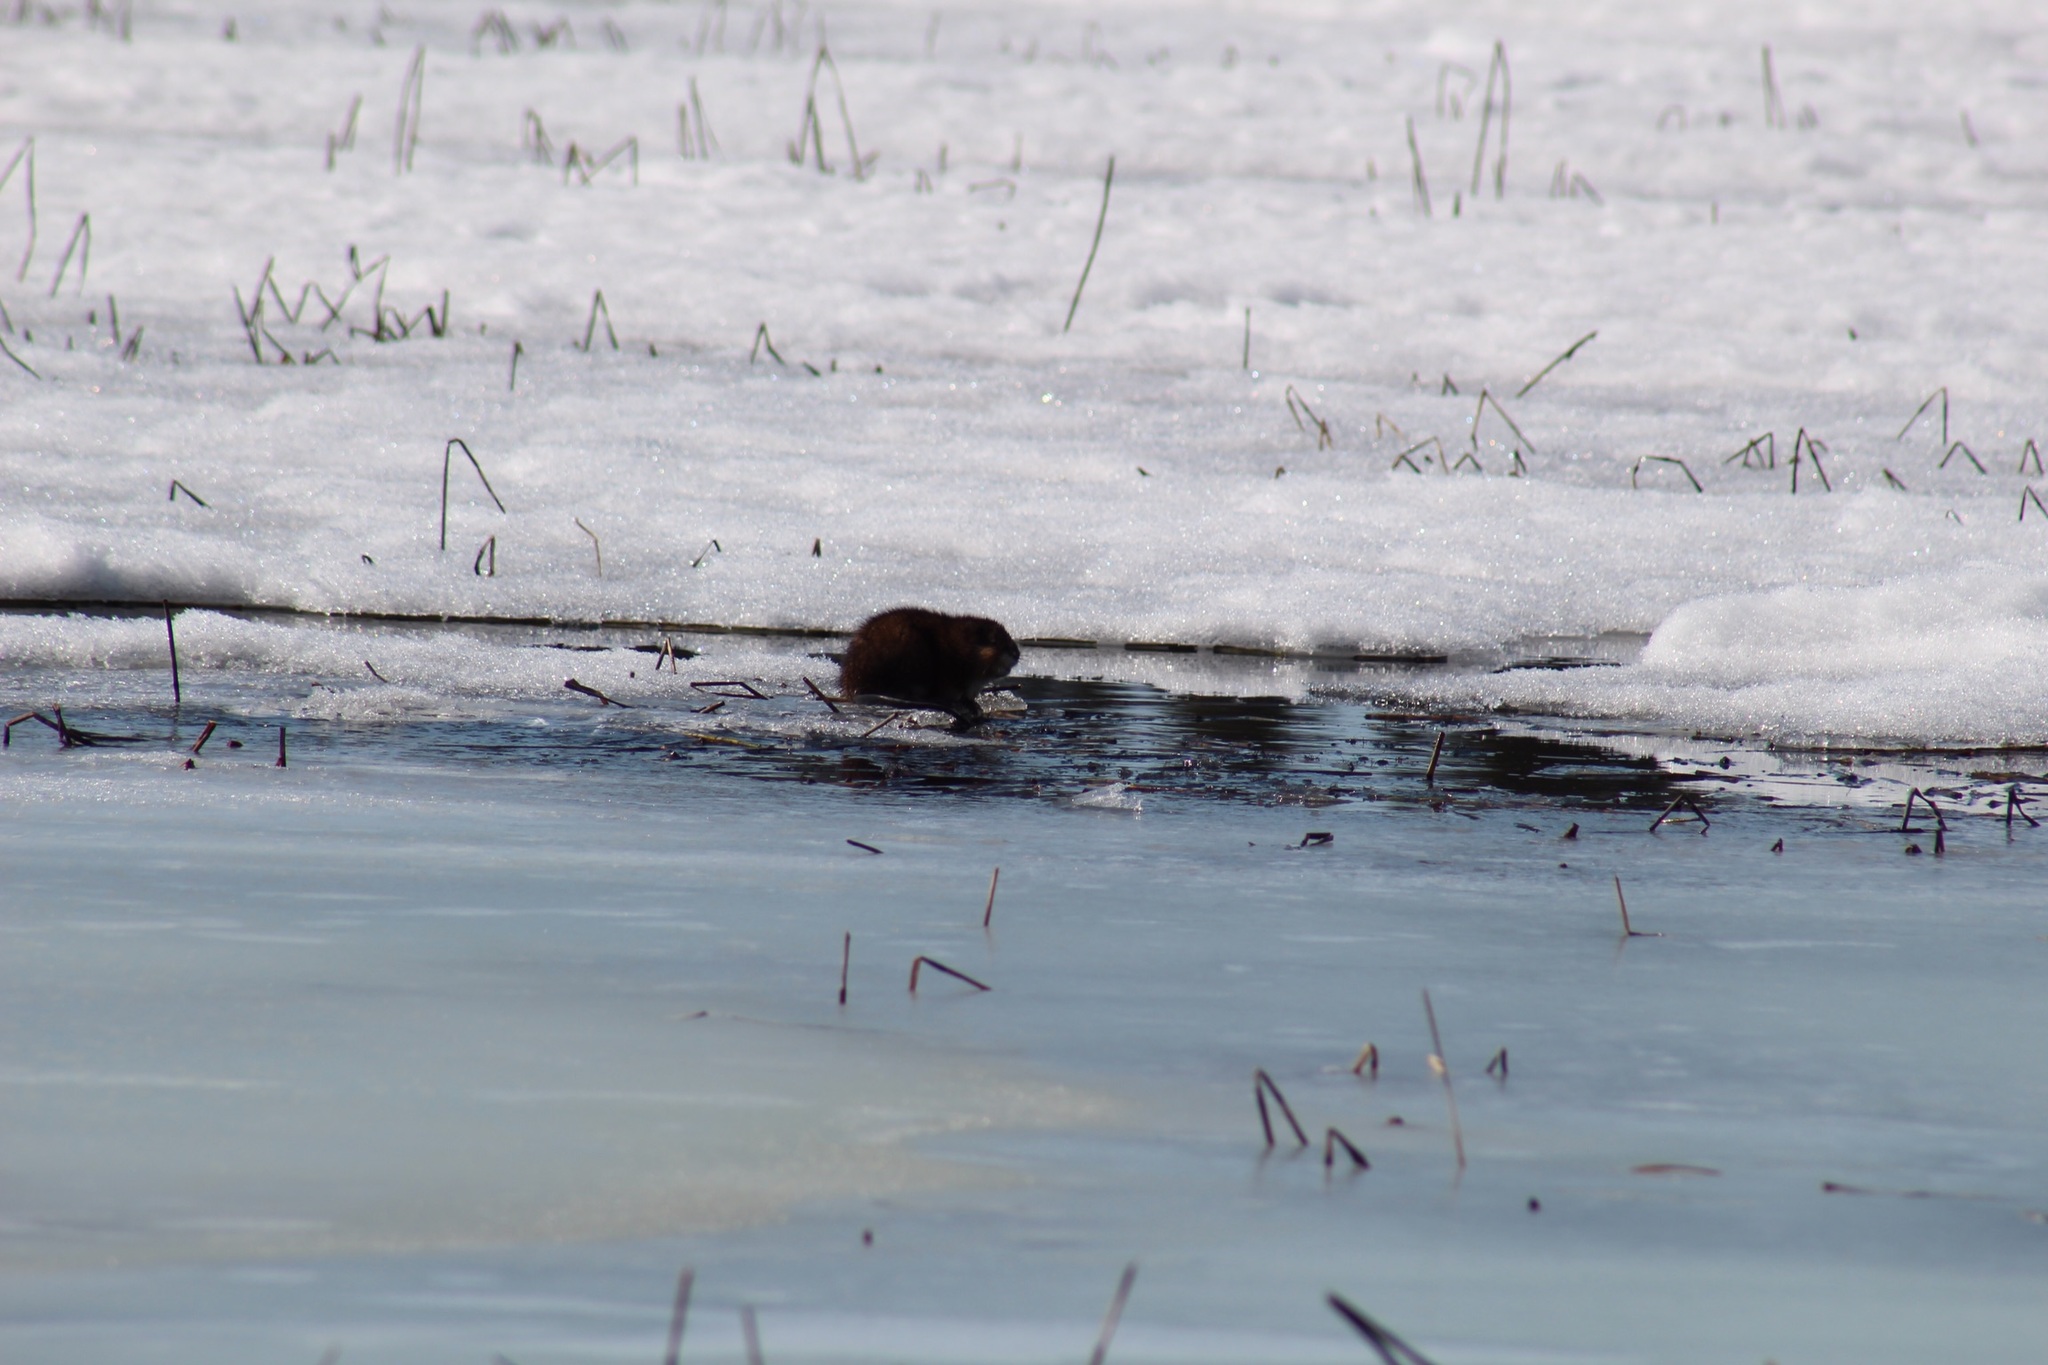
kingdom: Animalia
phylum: Chordata
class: Mammalia
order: Rodentia
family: Cricetidae
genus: Ondatra
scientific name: Ondatra zibethicus
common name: Muskrat
